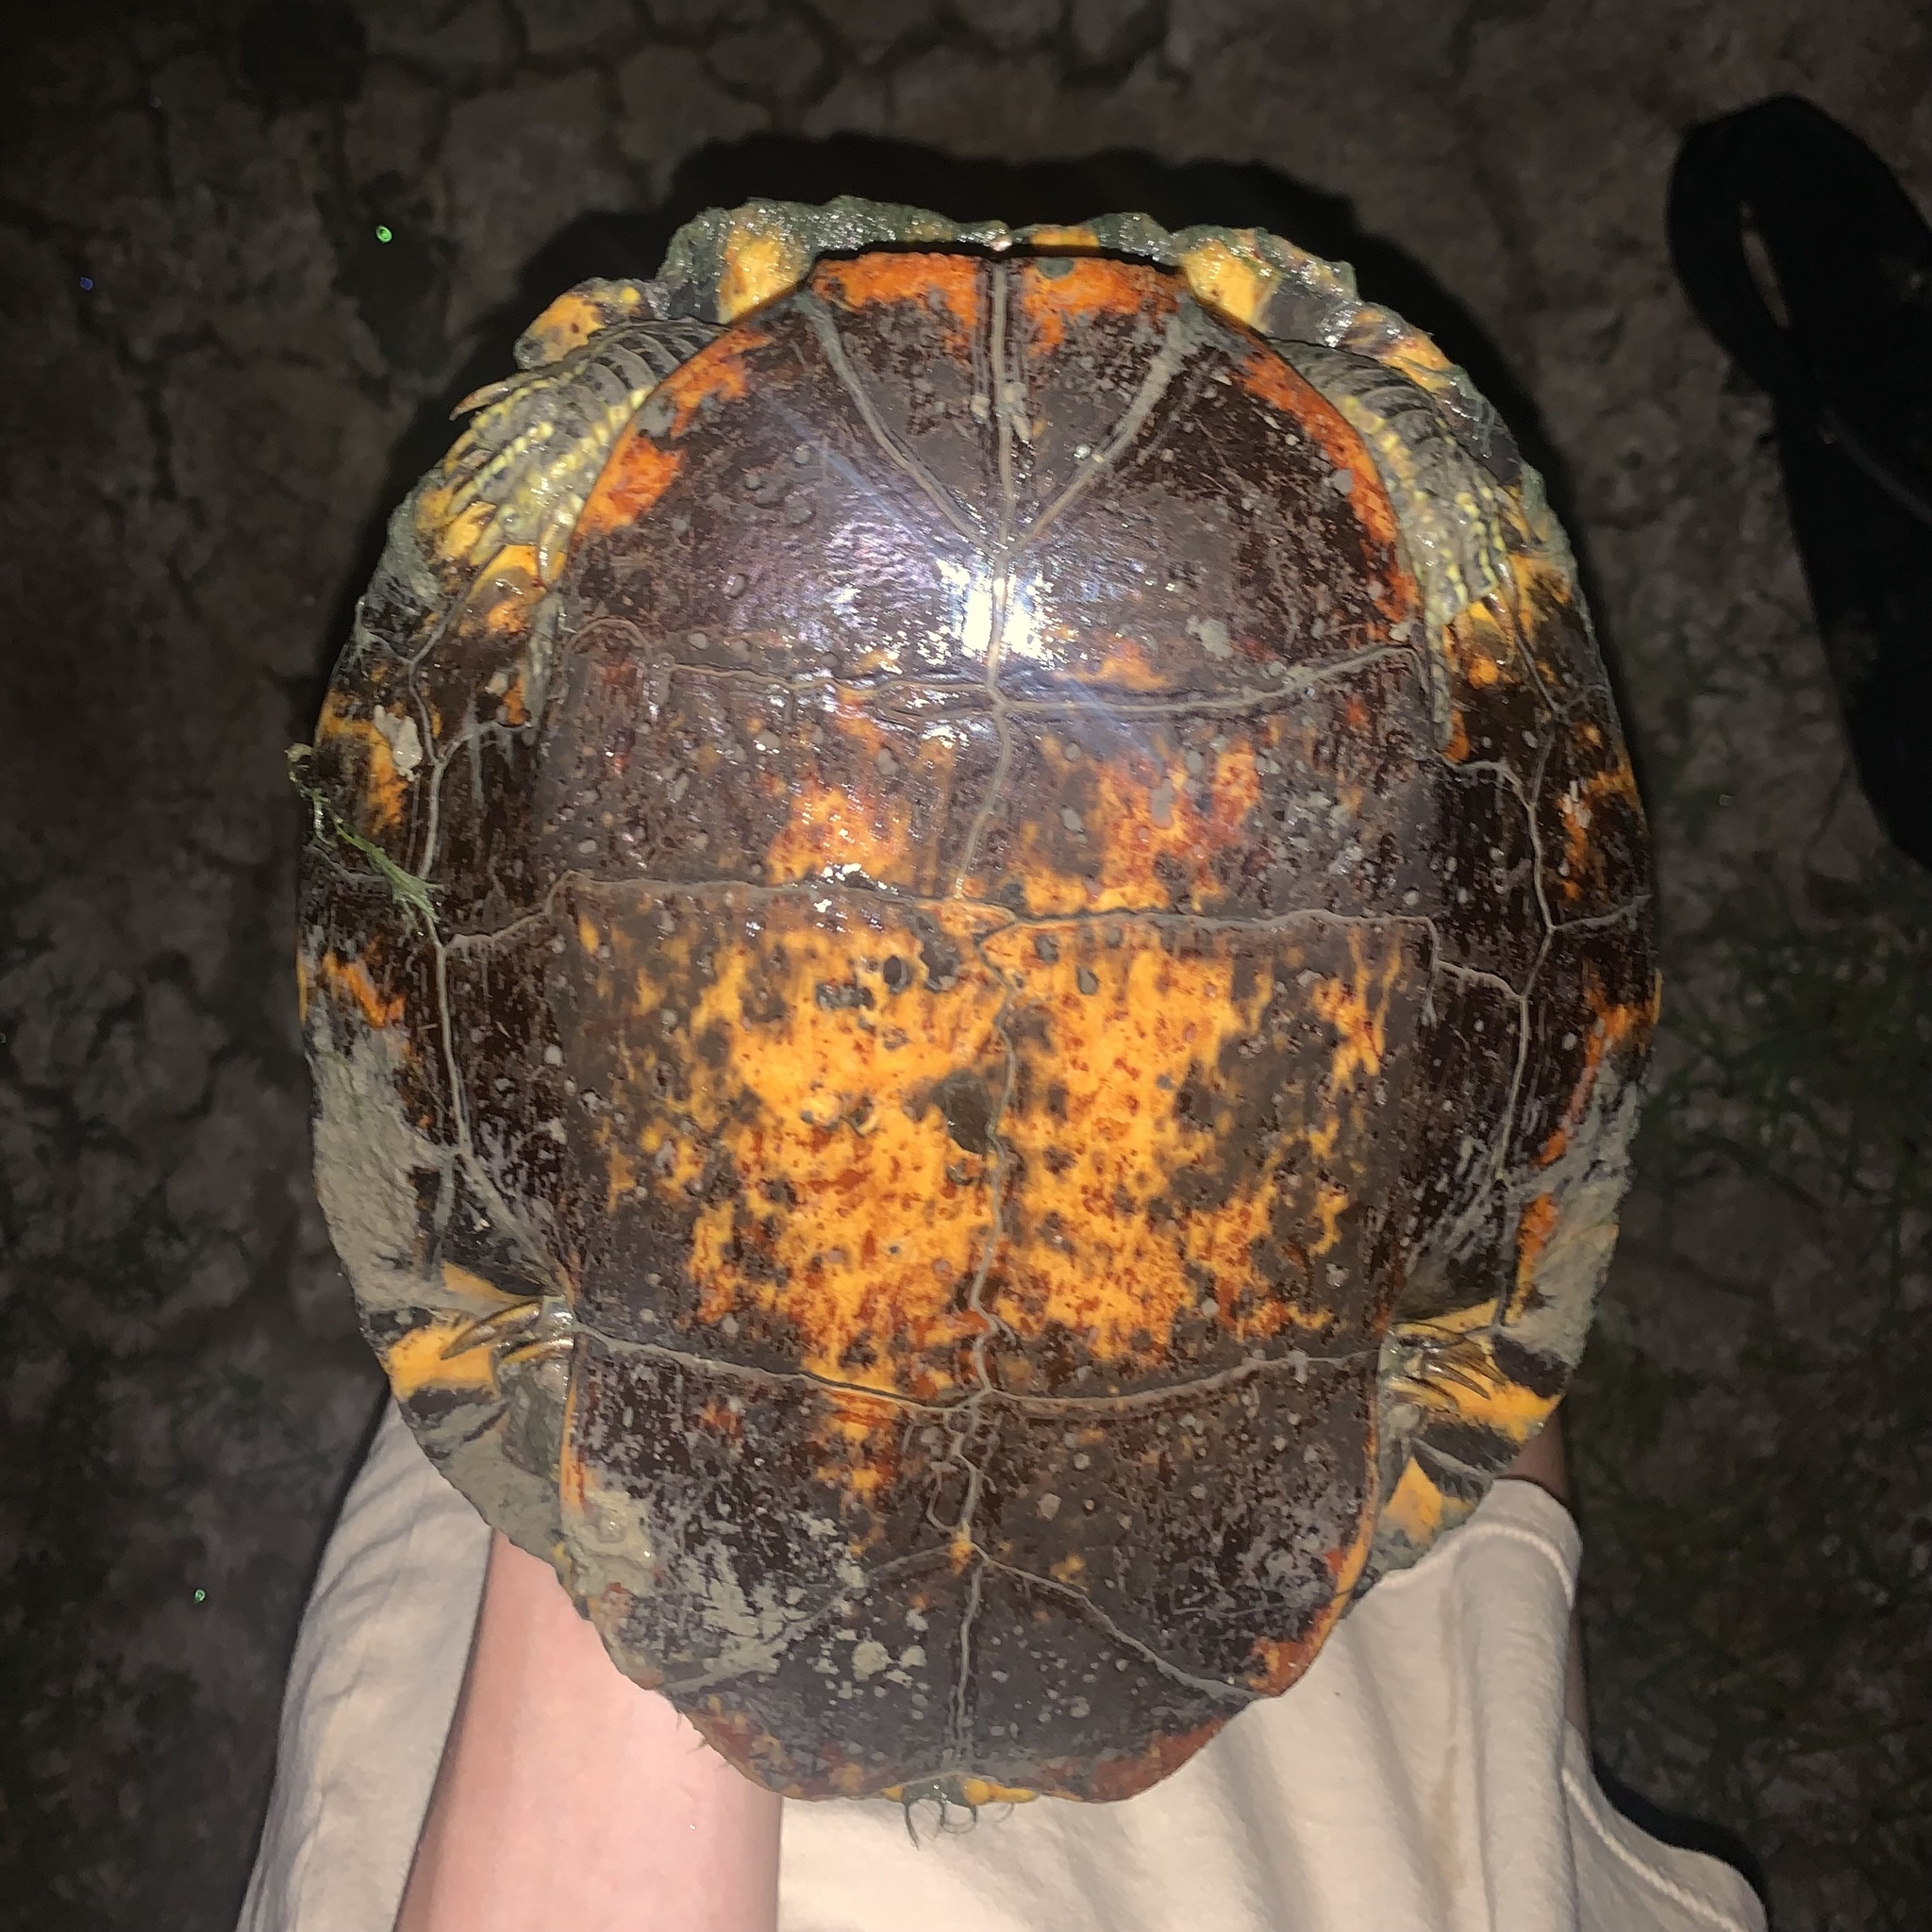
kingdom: Animalia
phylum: Chordata
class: Testudines
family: Emydidae
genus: Trachemys
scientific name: Trachemys scripta
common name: Slider
